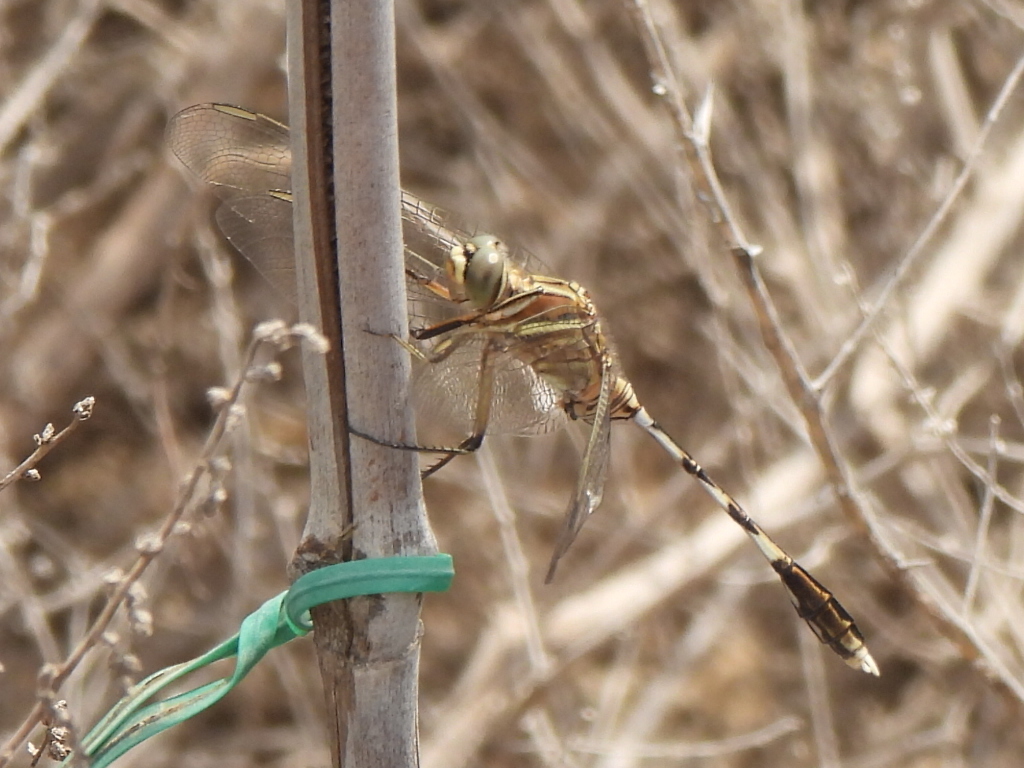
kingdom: Animalia
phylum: Arthropoda
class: Insecta
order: Odonata
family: Libellulidae
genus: Orthetrum
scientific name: Orthetrum sabina
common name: Slender skimmer
